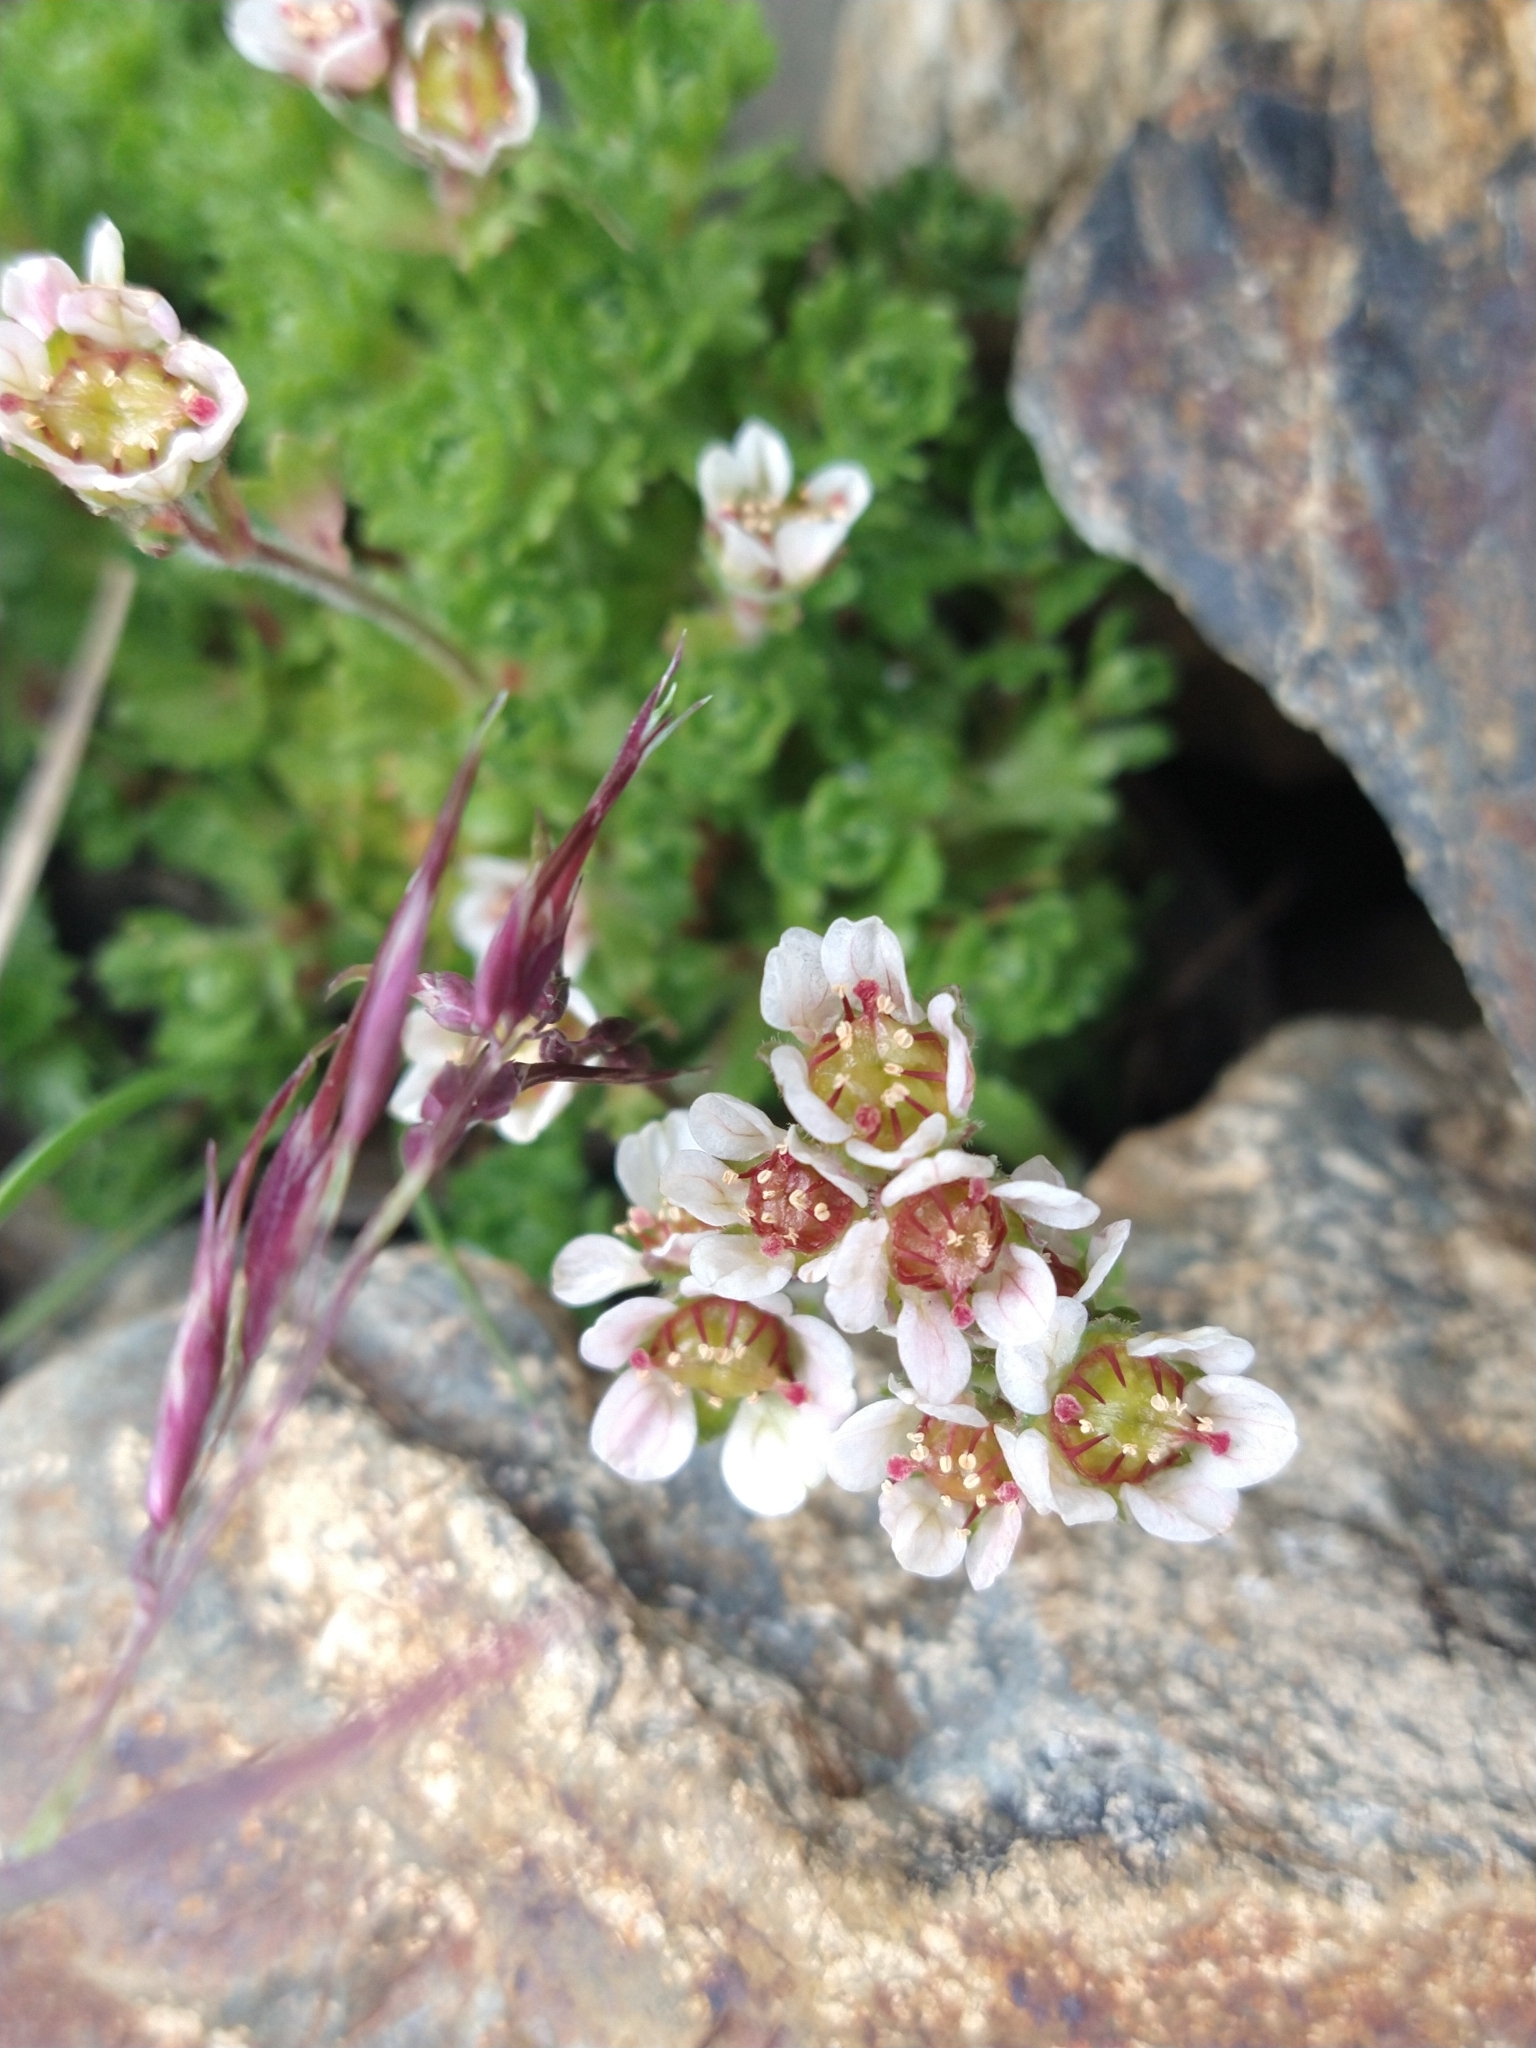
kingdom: Plantae
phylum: Tracheophyta
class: Magnoliopsida
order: Saxifragales
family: Saxifragaceae
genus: Saxifraga
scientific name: Saxifraga magellanica
